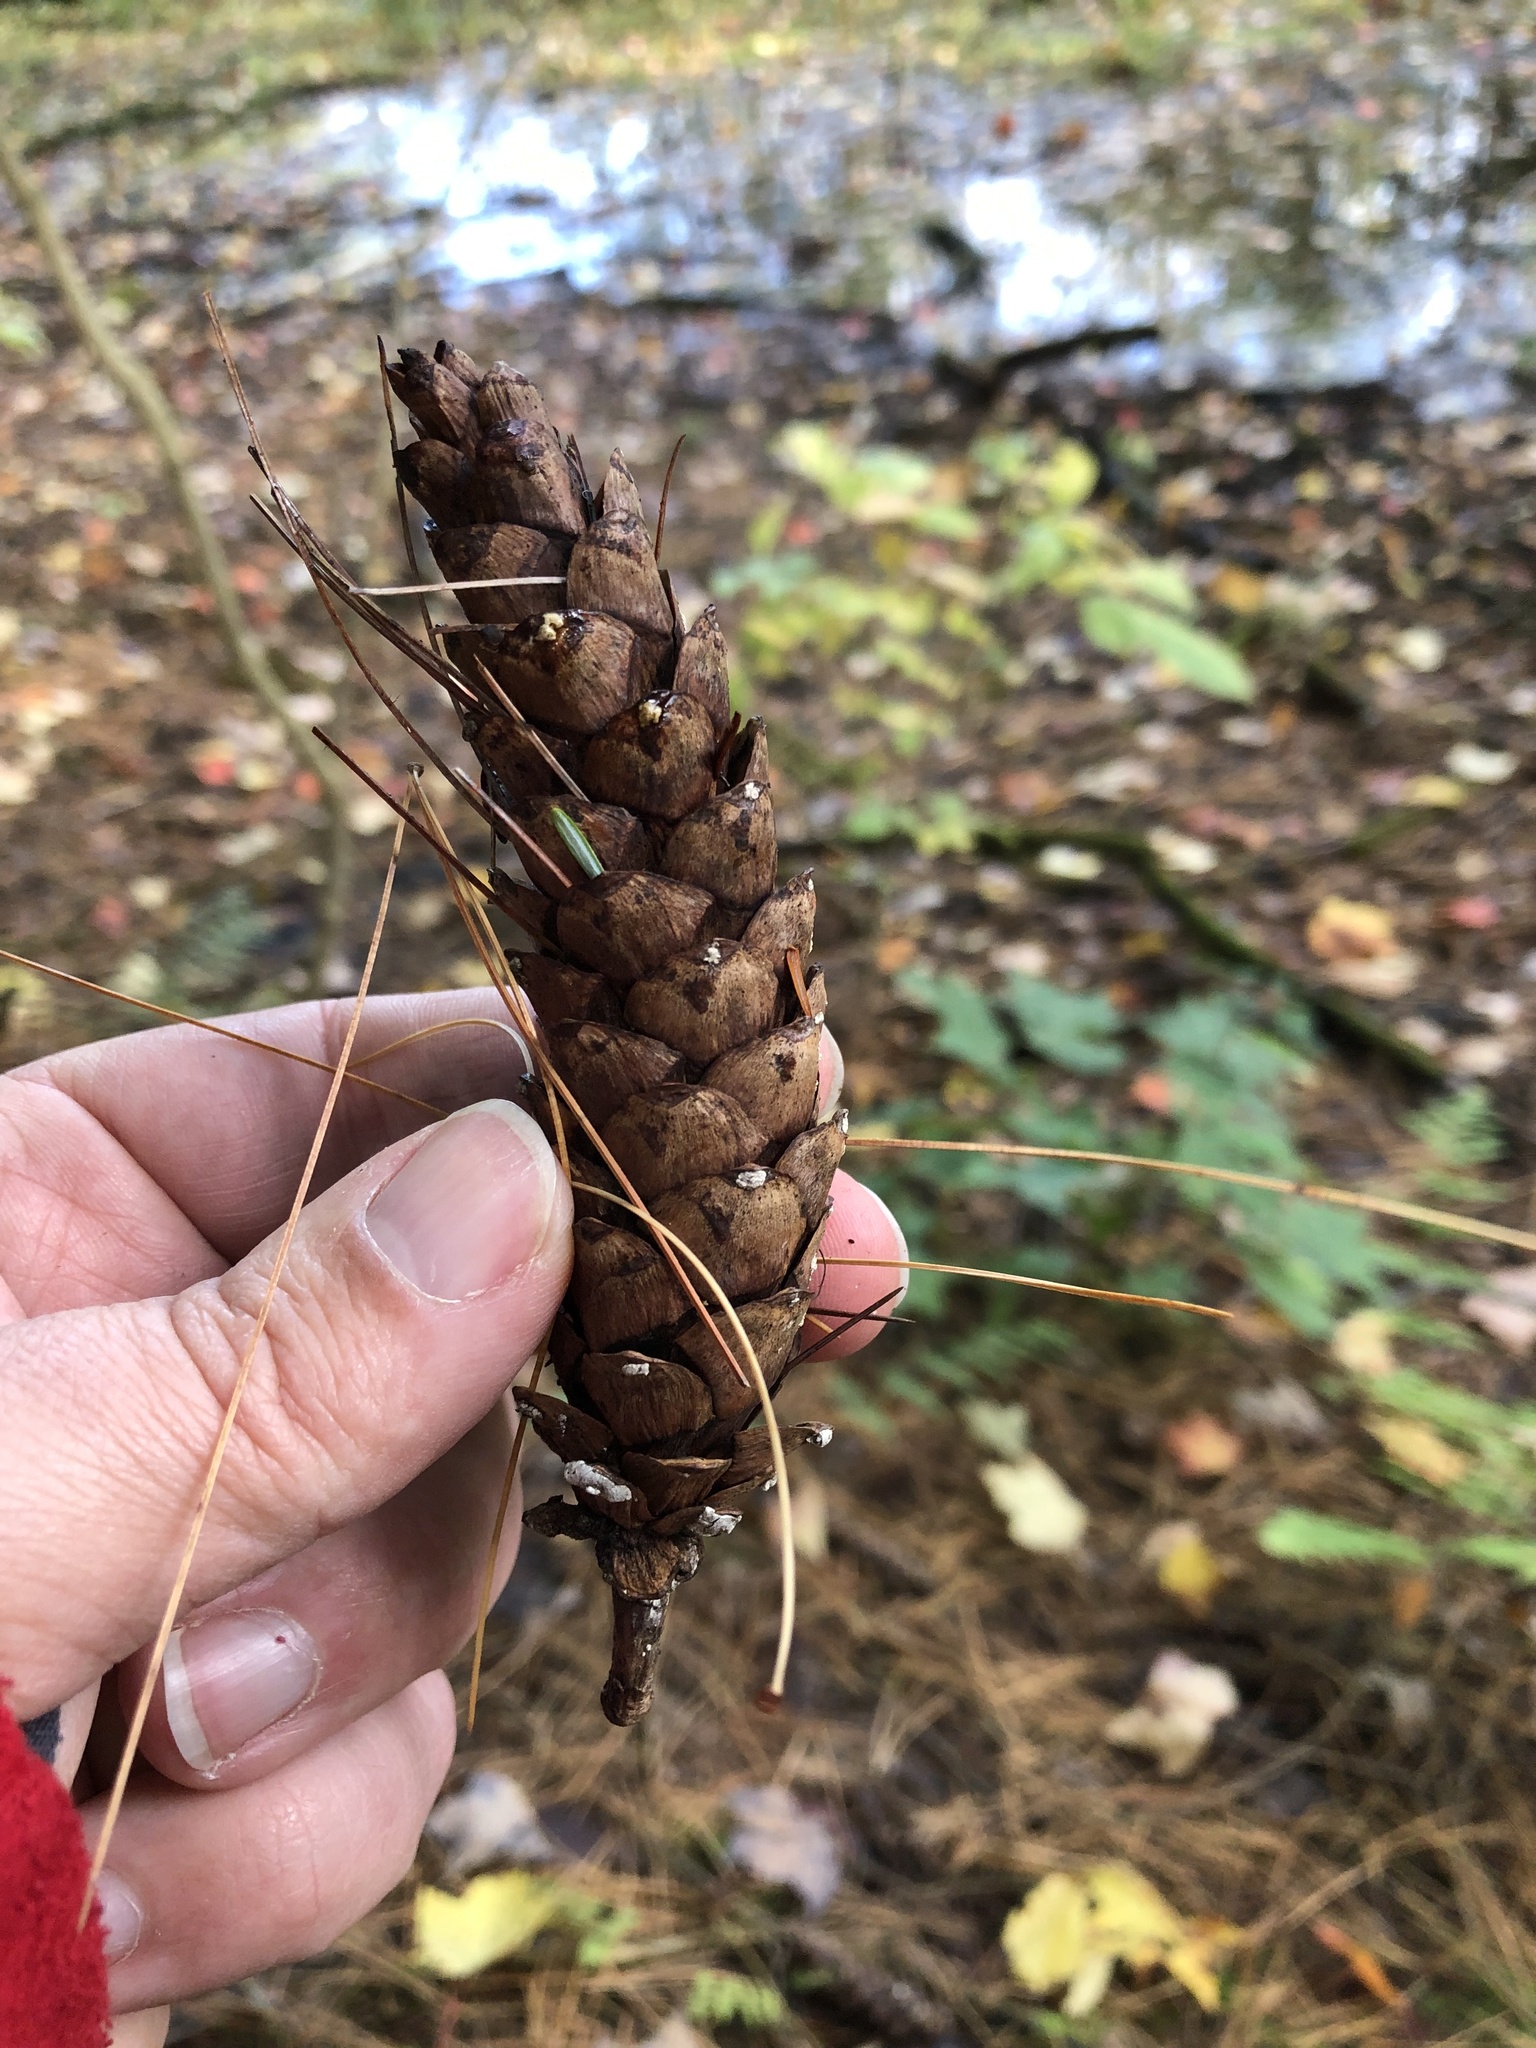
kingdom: Plantae
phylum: Tracheophyta
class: Pinopsida
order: Pinales
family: Pinaceae
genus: Pinus
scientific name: Pinus strobus
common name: Weymouth pine
